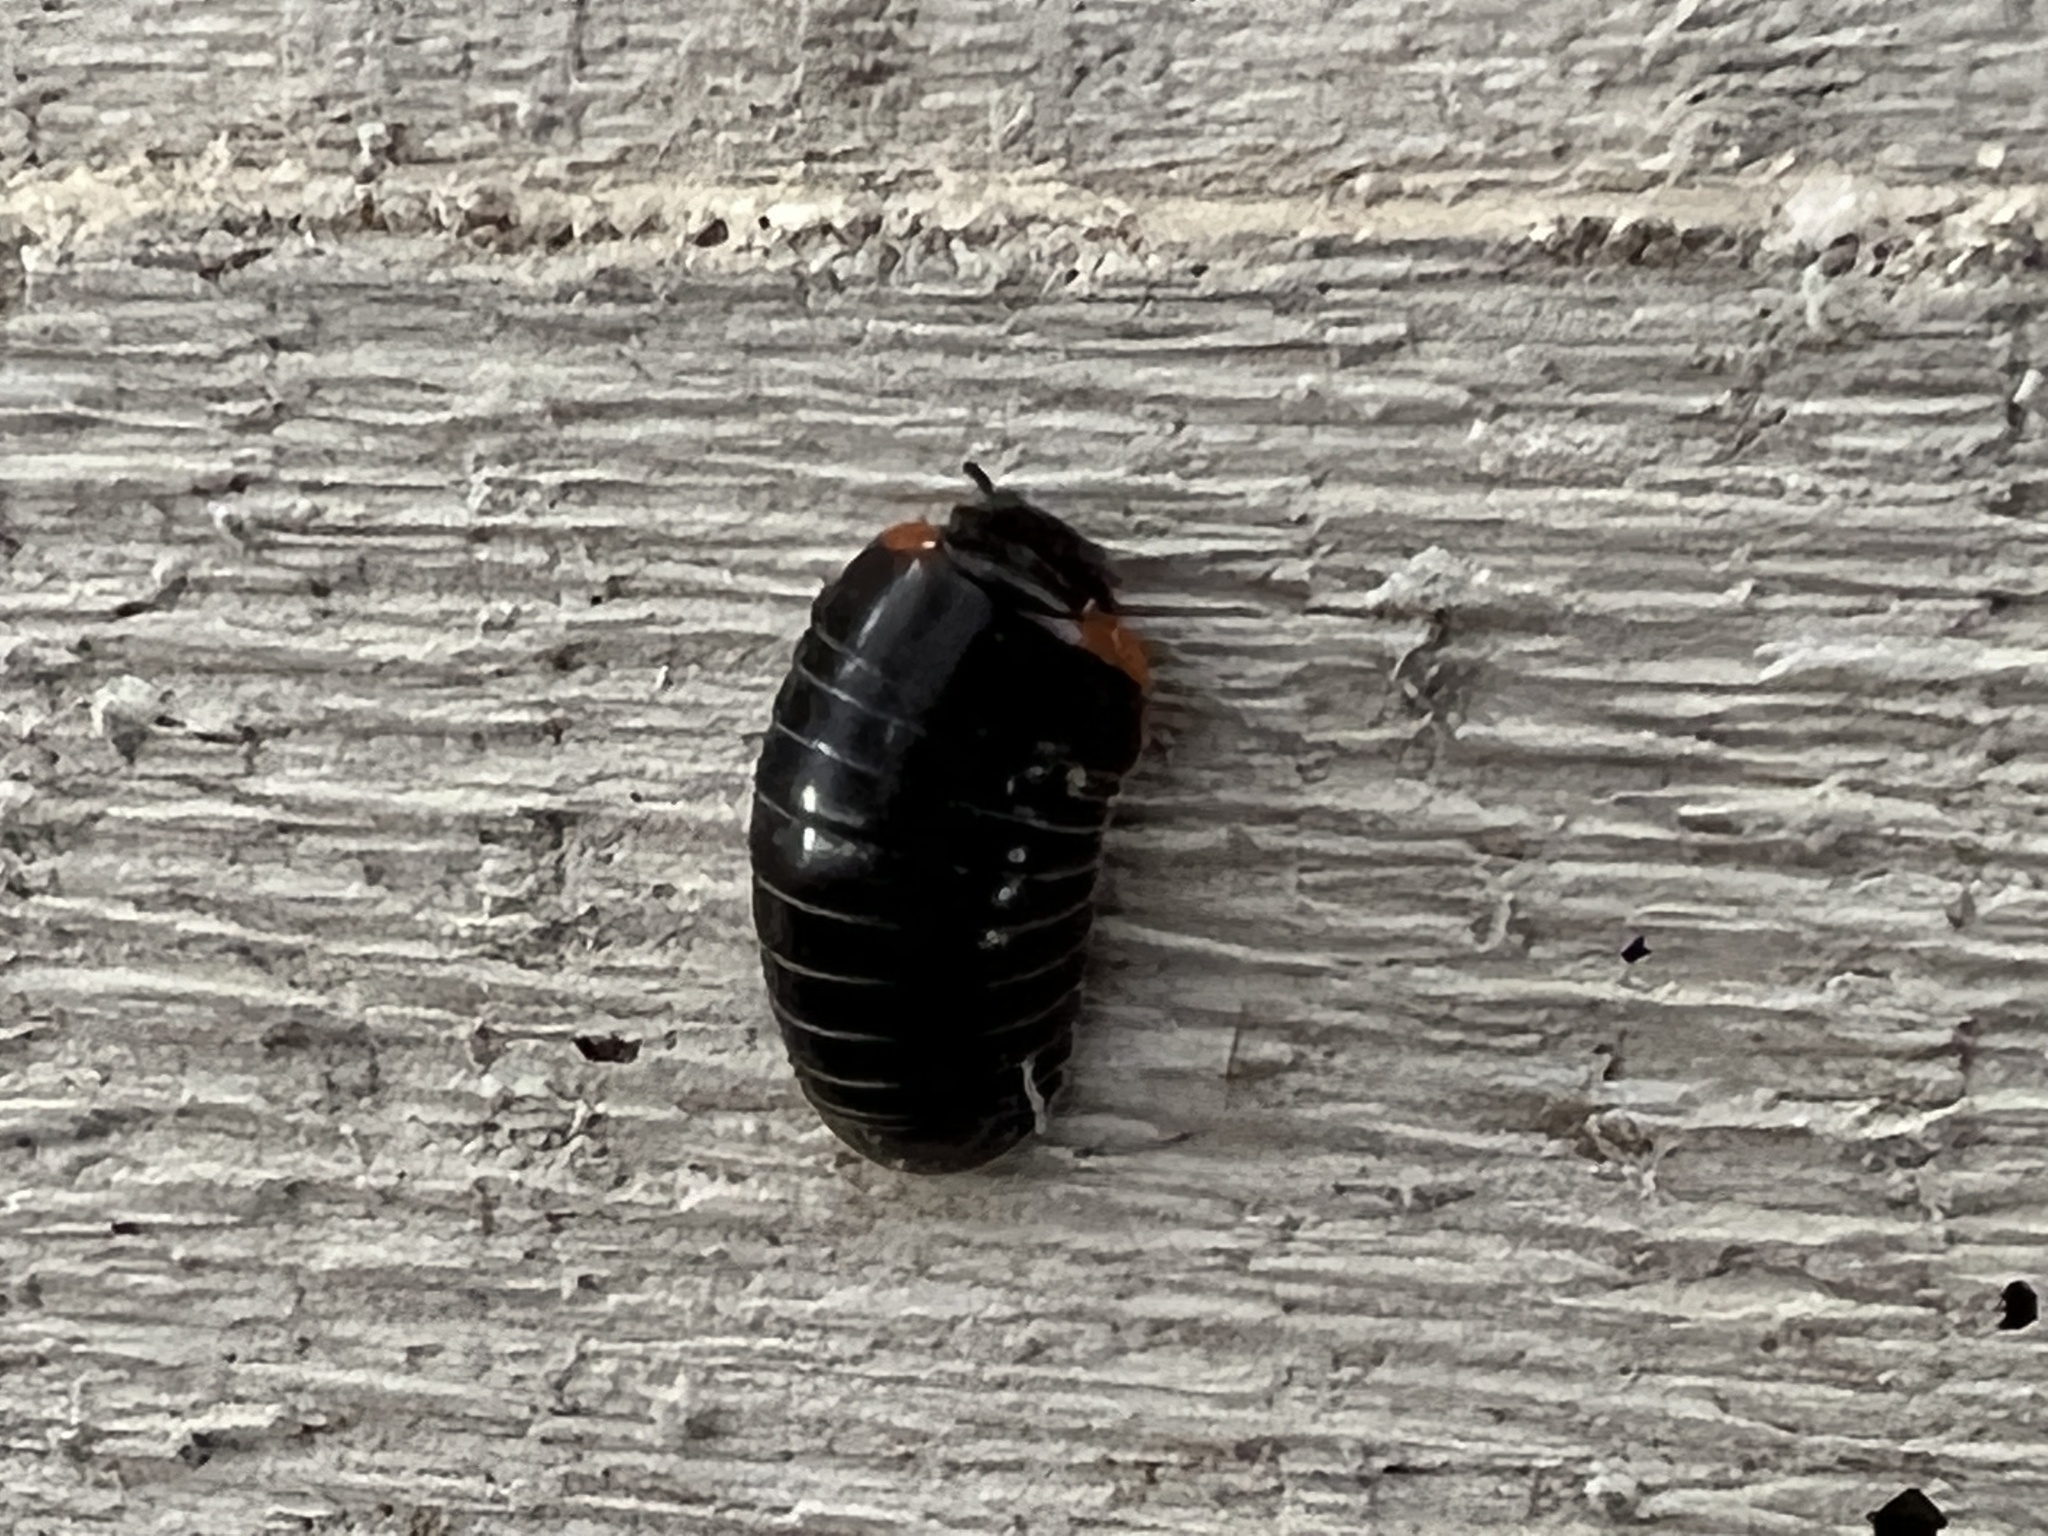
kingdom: Animalia
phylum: Arthropoda
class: Diplopoda
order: Glomerida
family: Glomeridae
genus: Glomeris
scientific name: Glomeris romana
